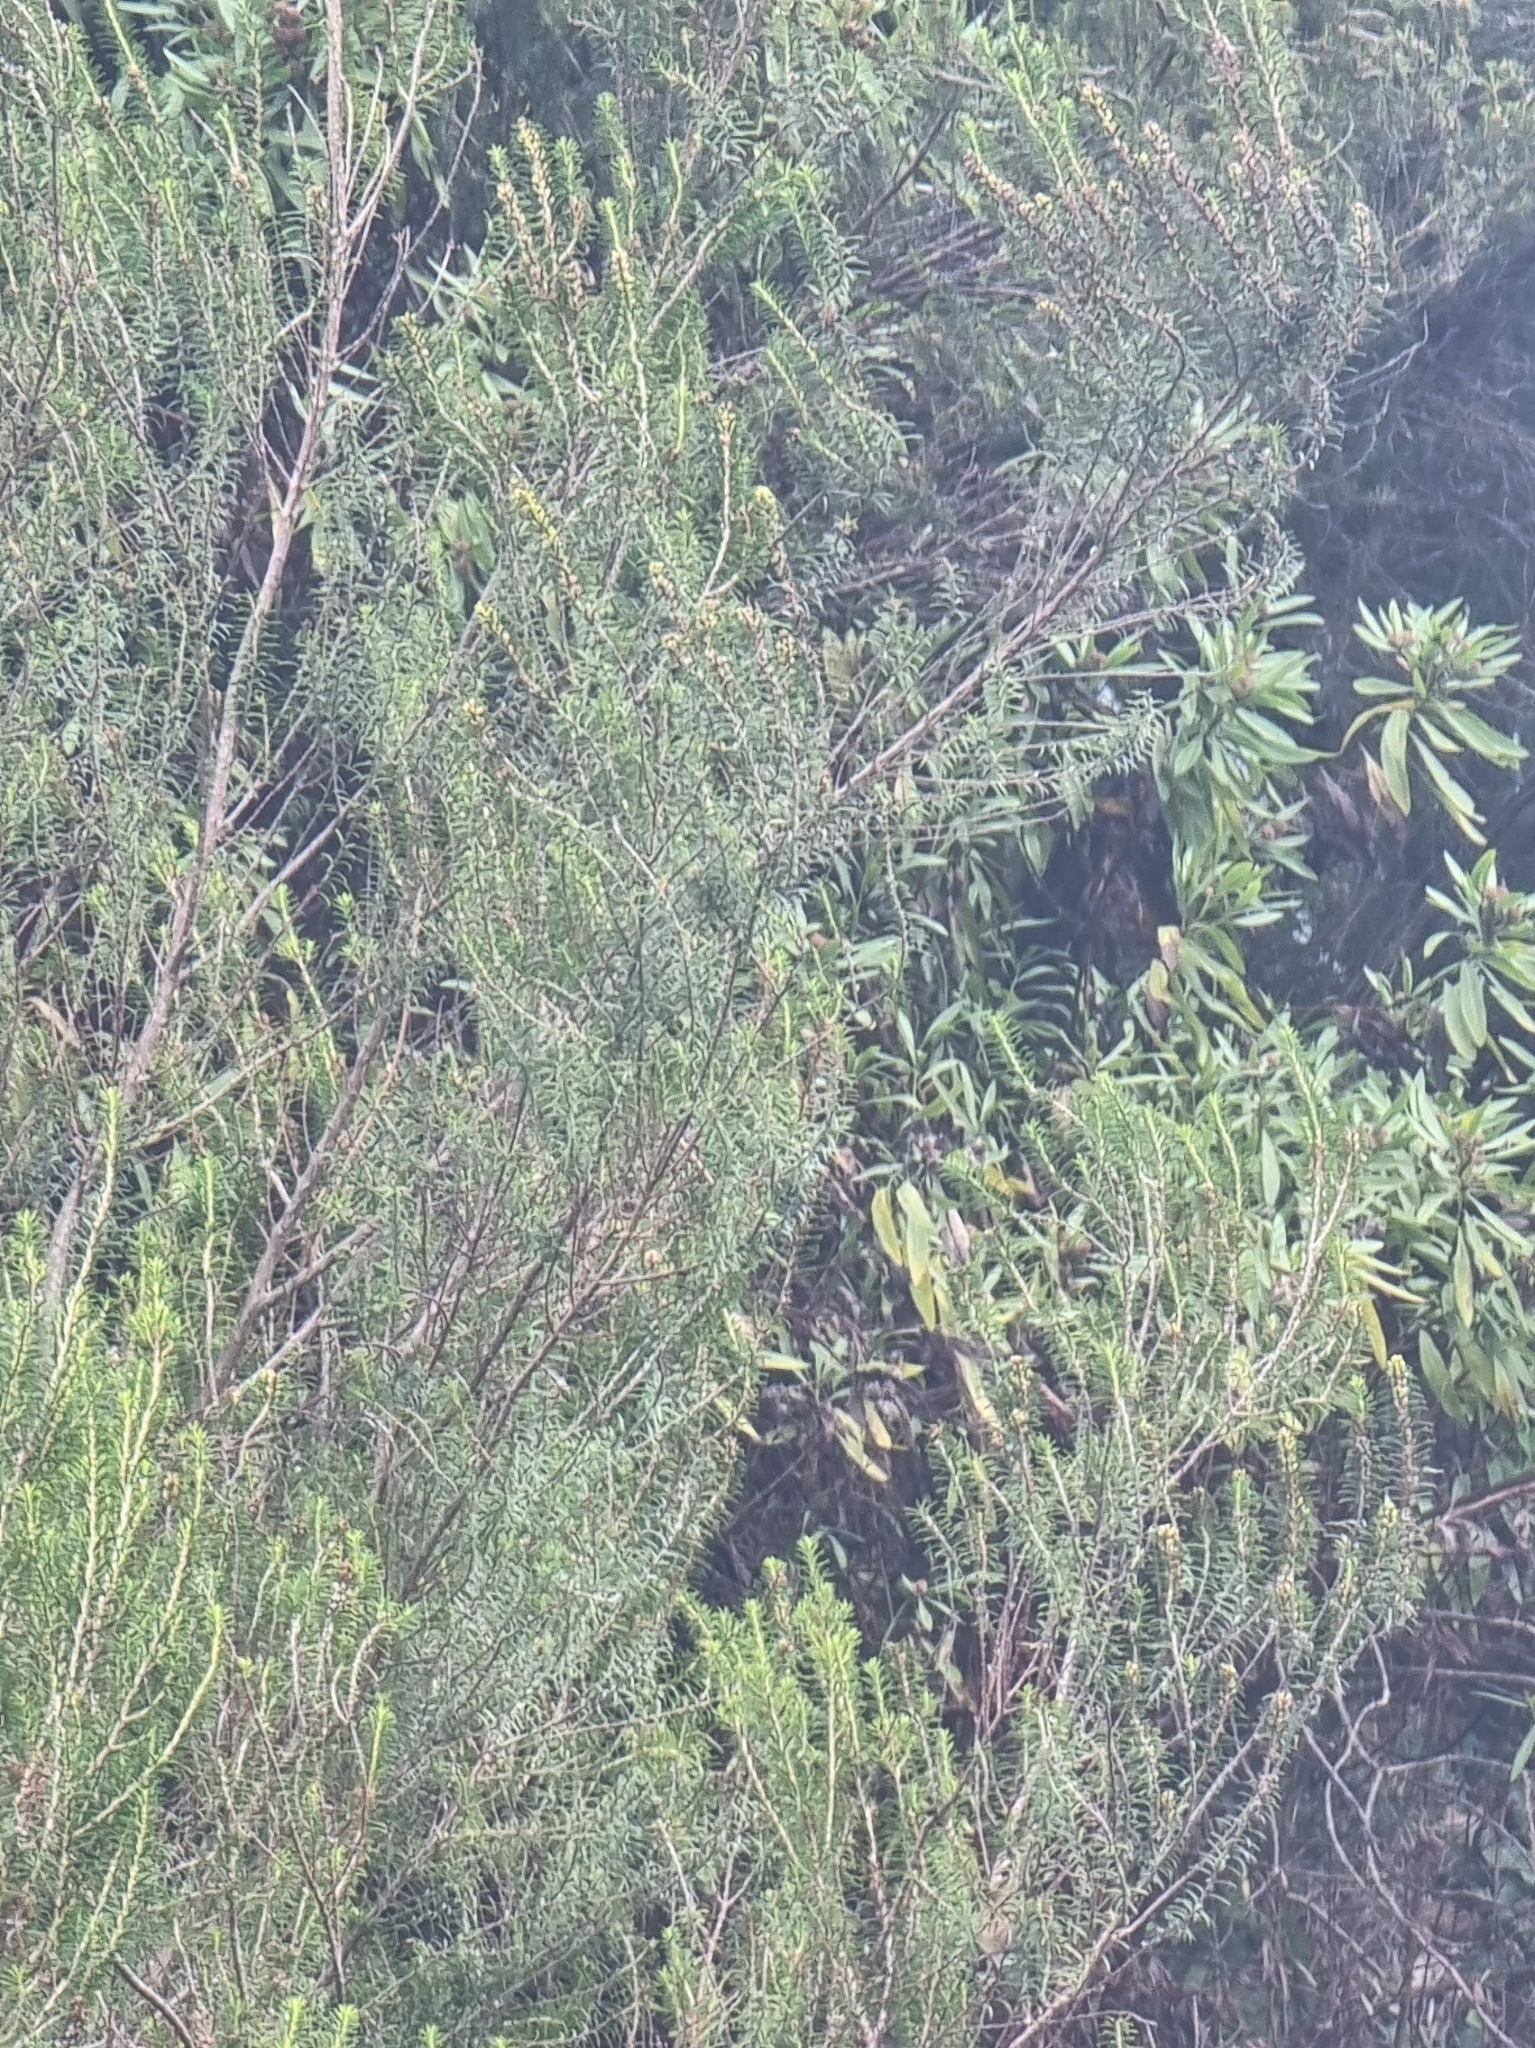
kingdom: Plantae
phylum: Tracheophyta
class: Magnoliopsida
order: Ericales
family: Ericaceae
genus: Erica
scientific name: Erica platycodon
